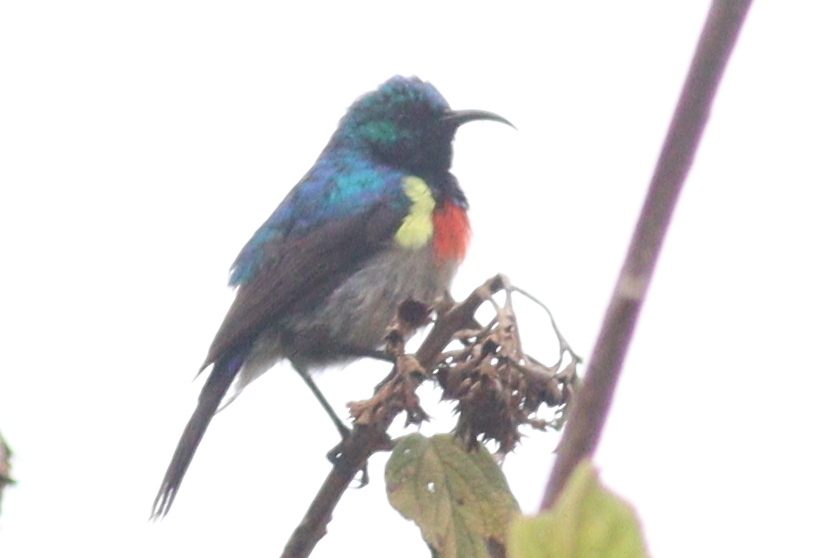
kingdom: Animalia
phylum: Chordata
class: Aves
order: Passeriformes
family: Nectariniidae
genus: Cinnyris
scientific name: Cinnyris mediocris
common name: Eastern double-collared sunbird
